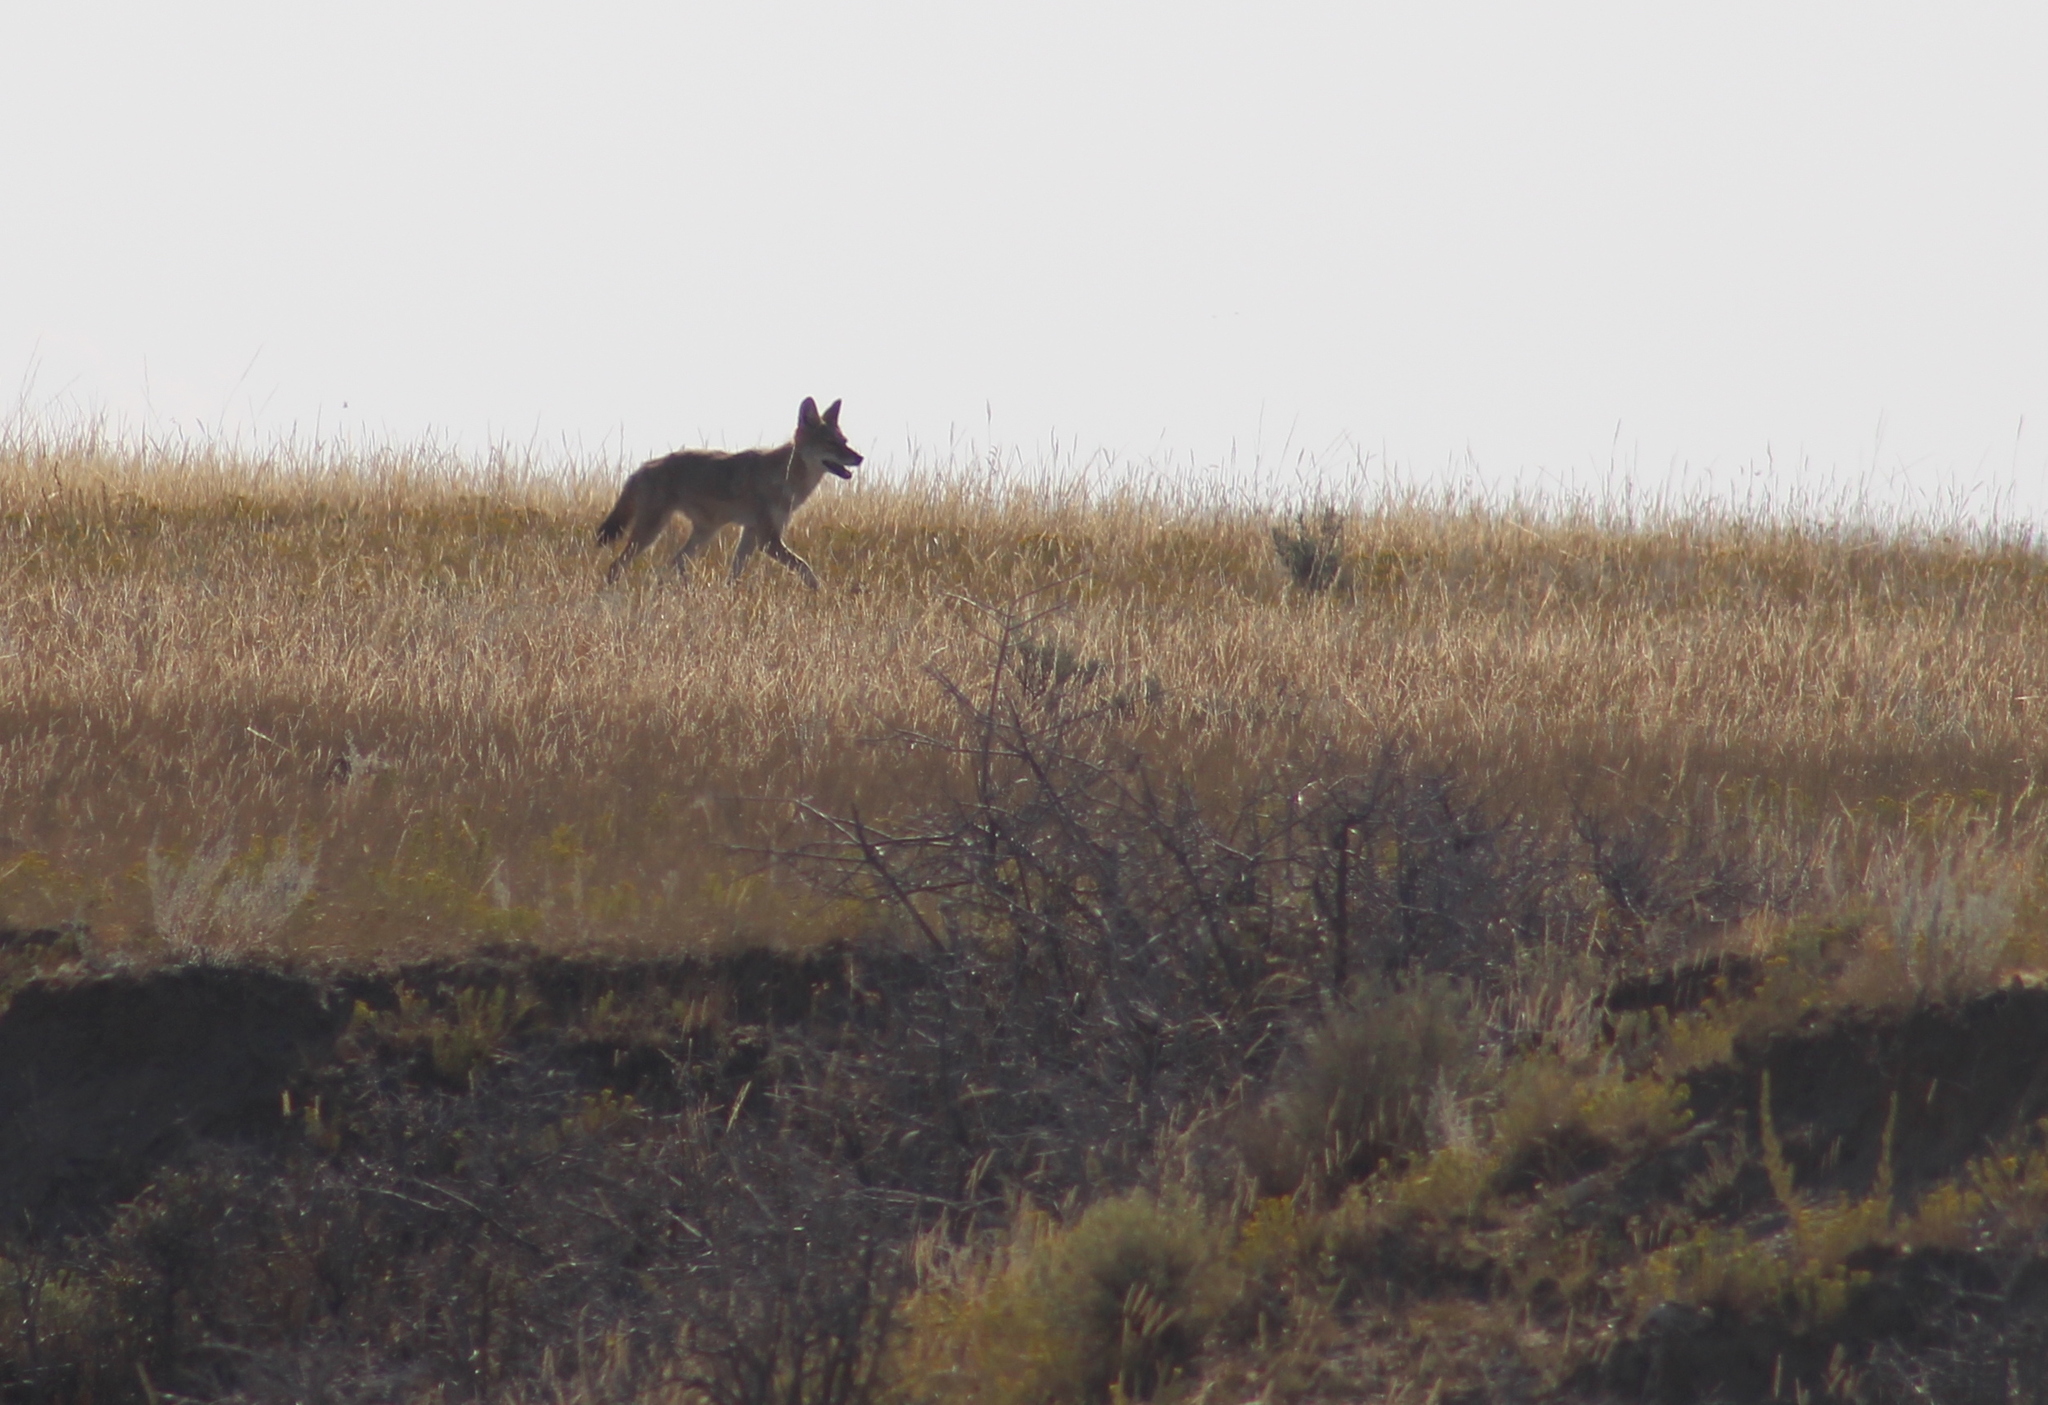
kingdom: Animalia
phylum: Chordata
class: Mammalia
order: Carnivora
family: Canidae
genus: Canis
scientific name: Canis latrans
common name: Coyote
